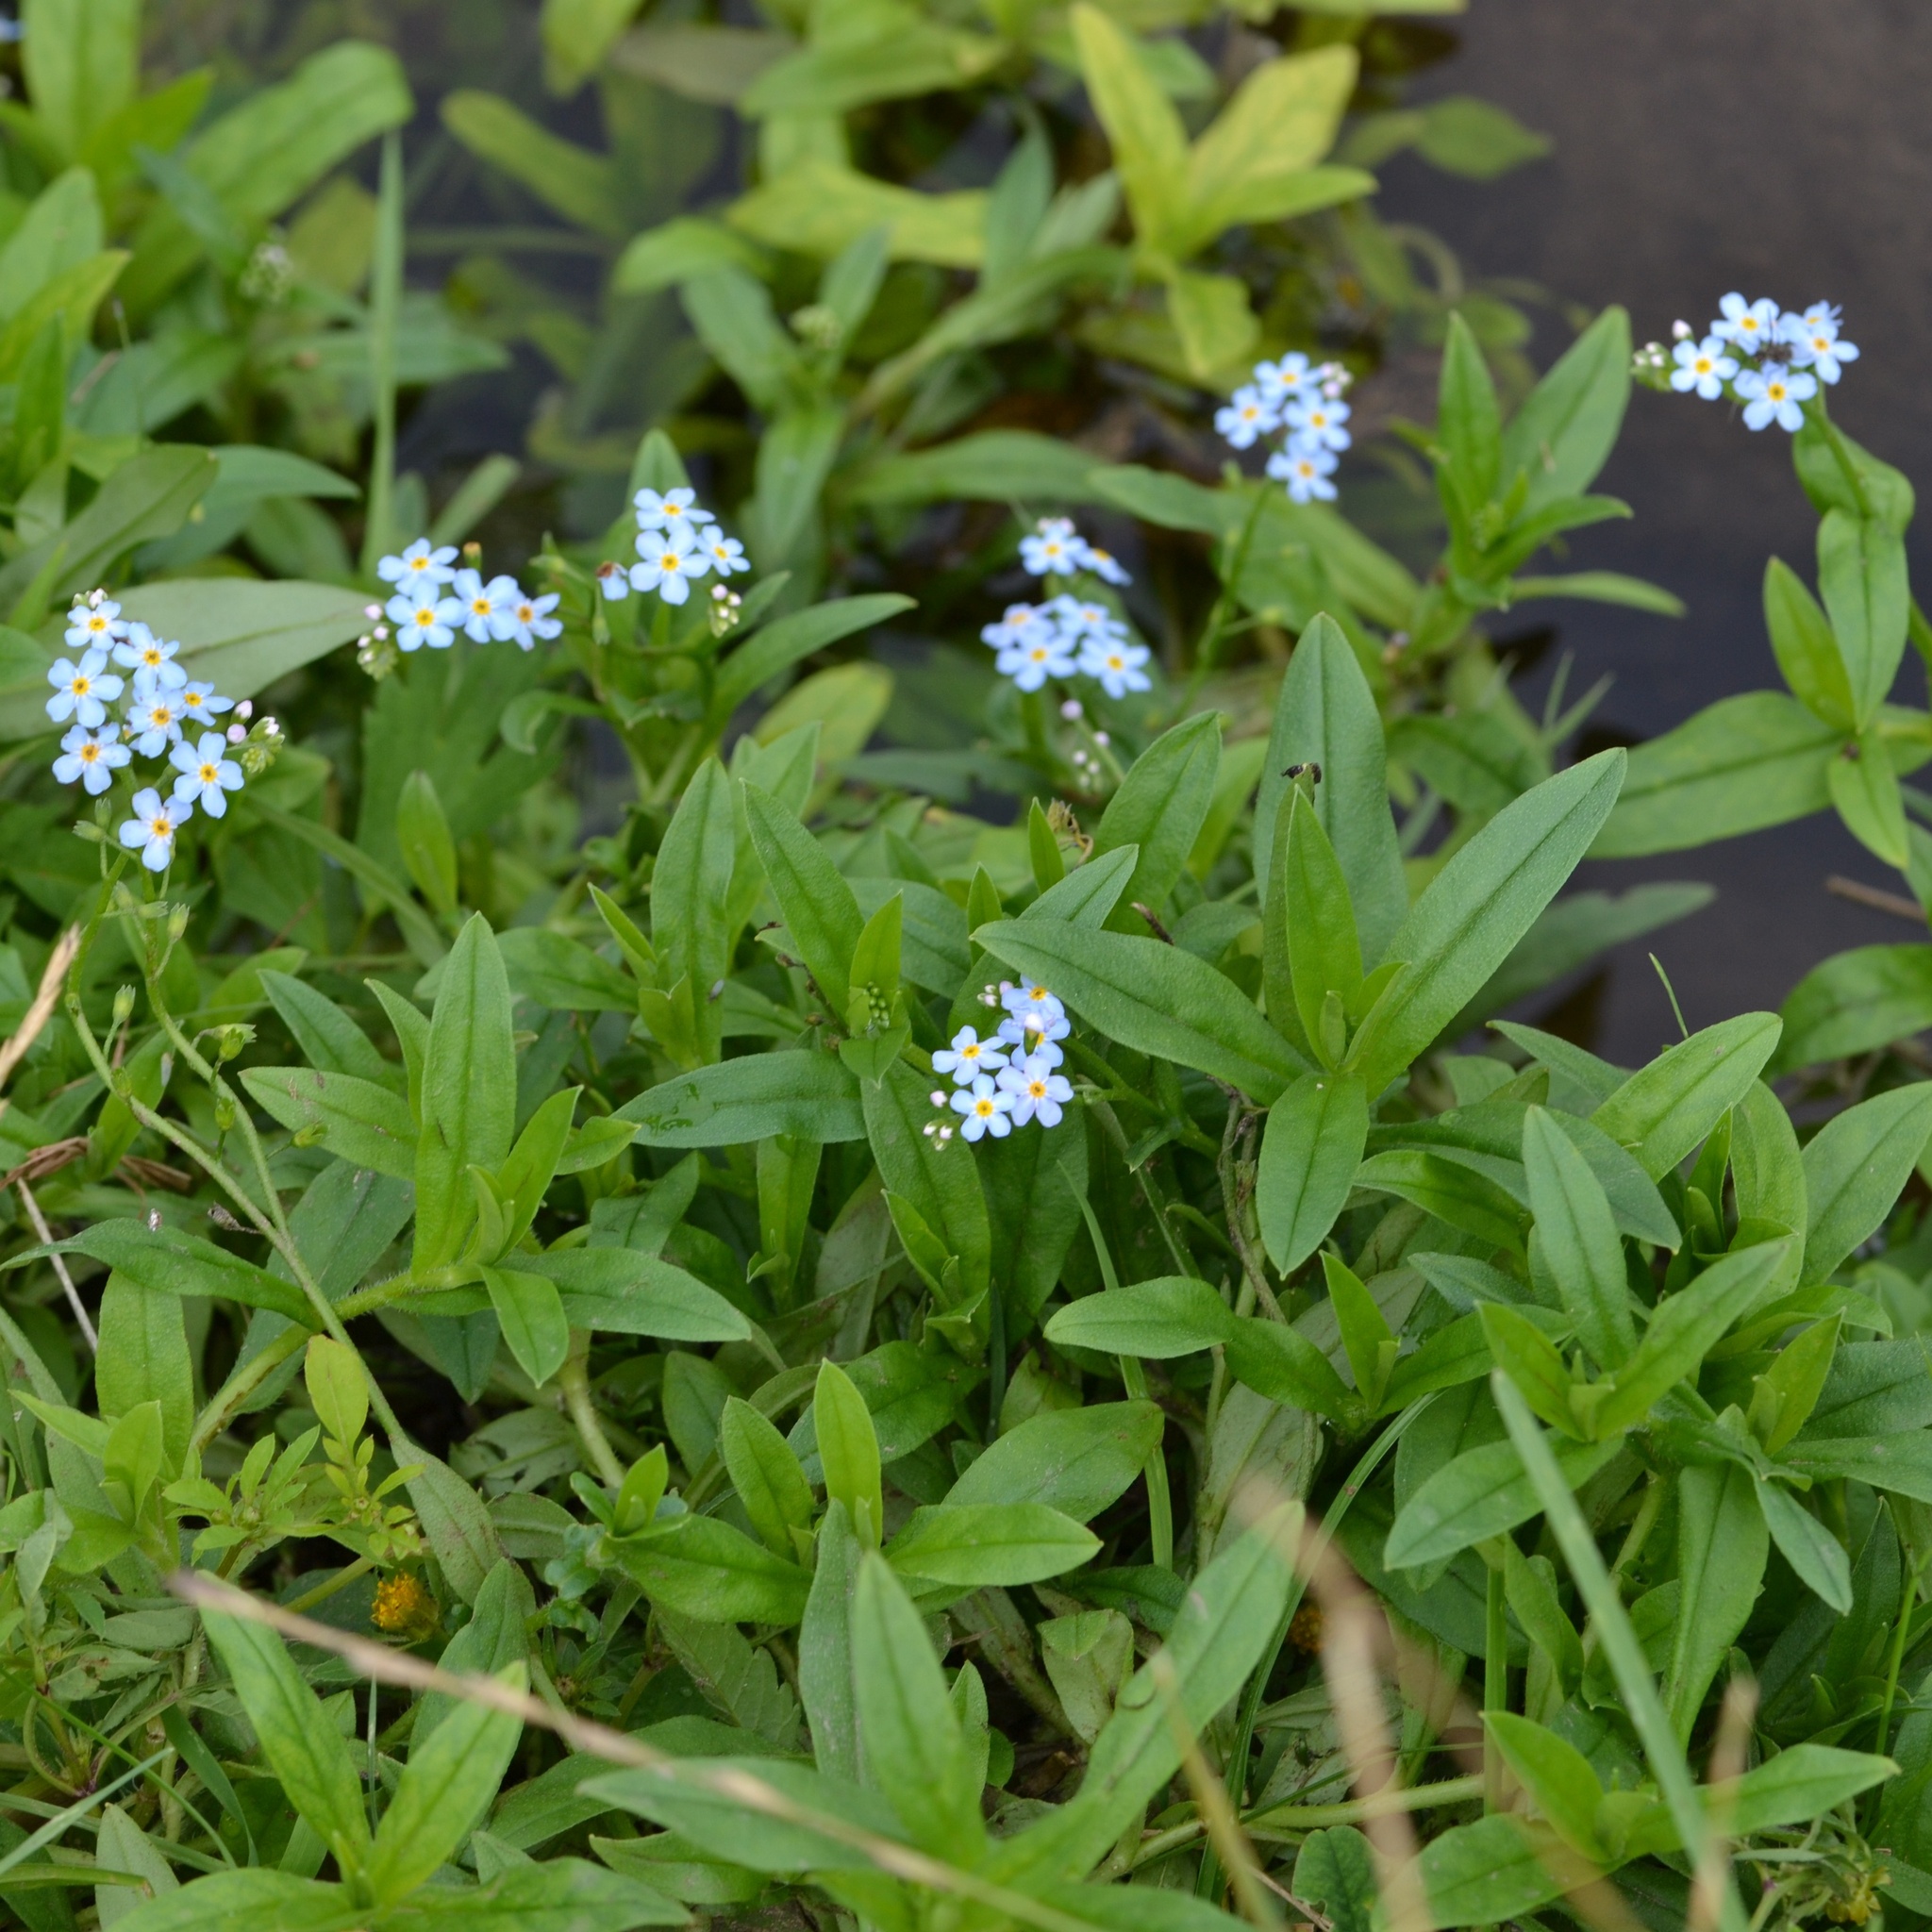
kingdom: Plantae
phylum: Tracheophyta
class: Magnoliopsida
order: Boraginales
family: Boraginaceae
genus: Myosotis
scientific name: Myosotis scorpioides
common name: Water forget-me-not
